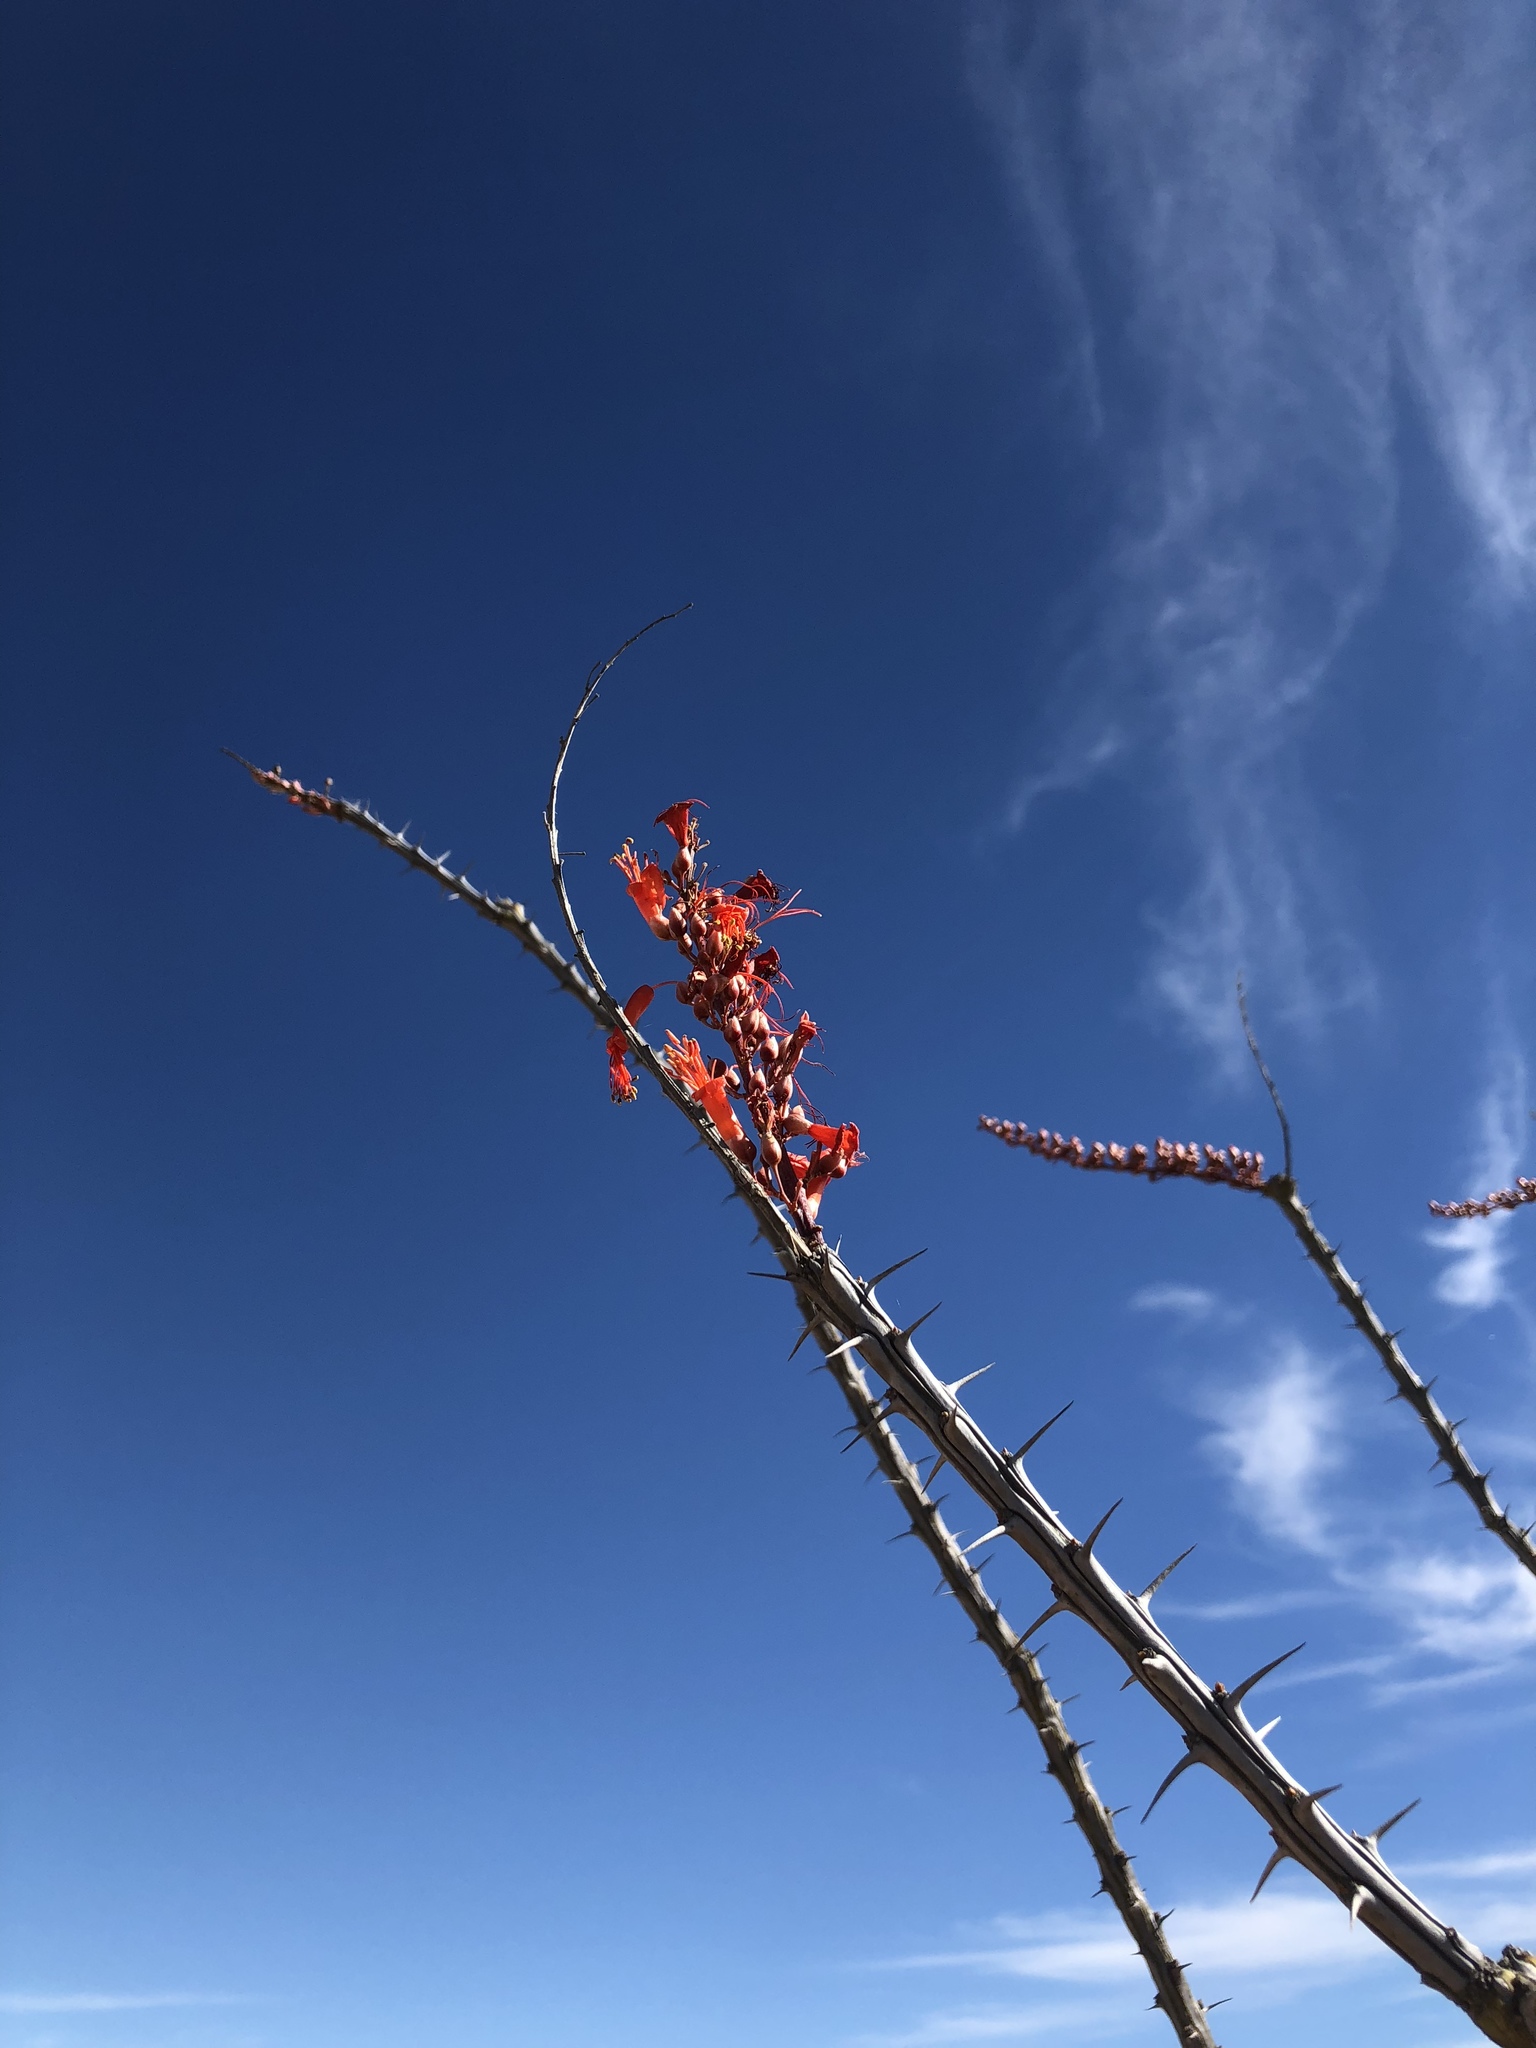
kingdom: Plantae
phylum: Tracheophyta
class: Magnoliopsida
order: Ericales
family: Fouquieriaceae
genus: Fouquieria
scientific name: Fouquieria splendens
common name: Vine-cactus
